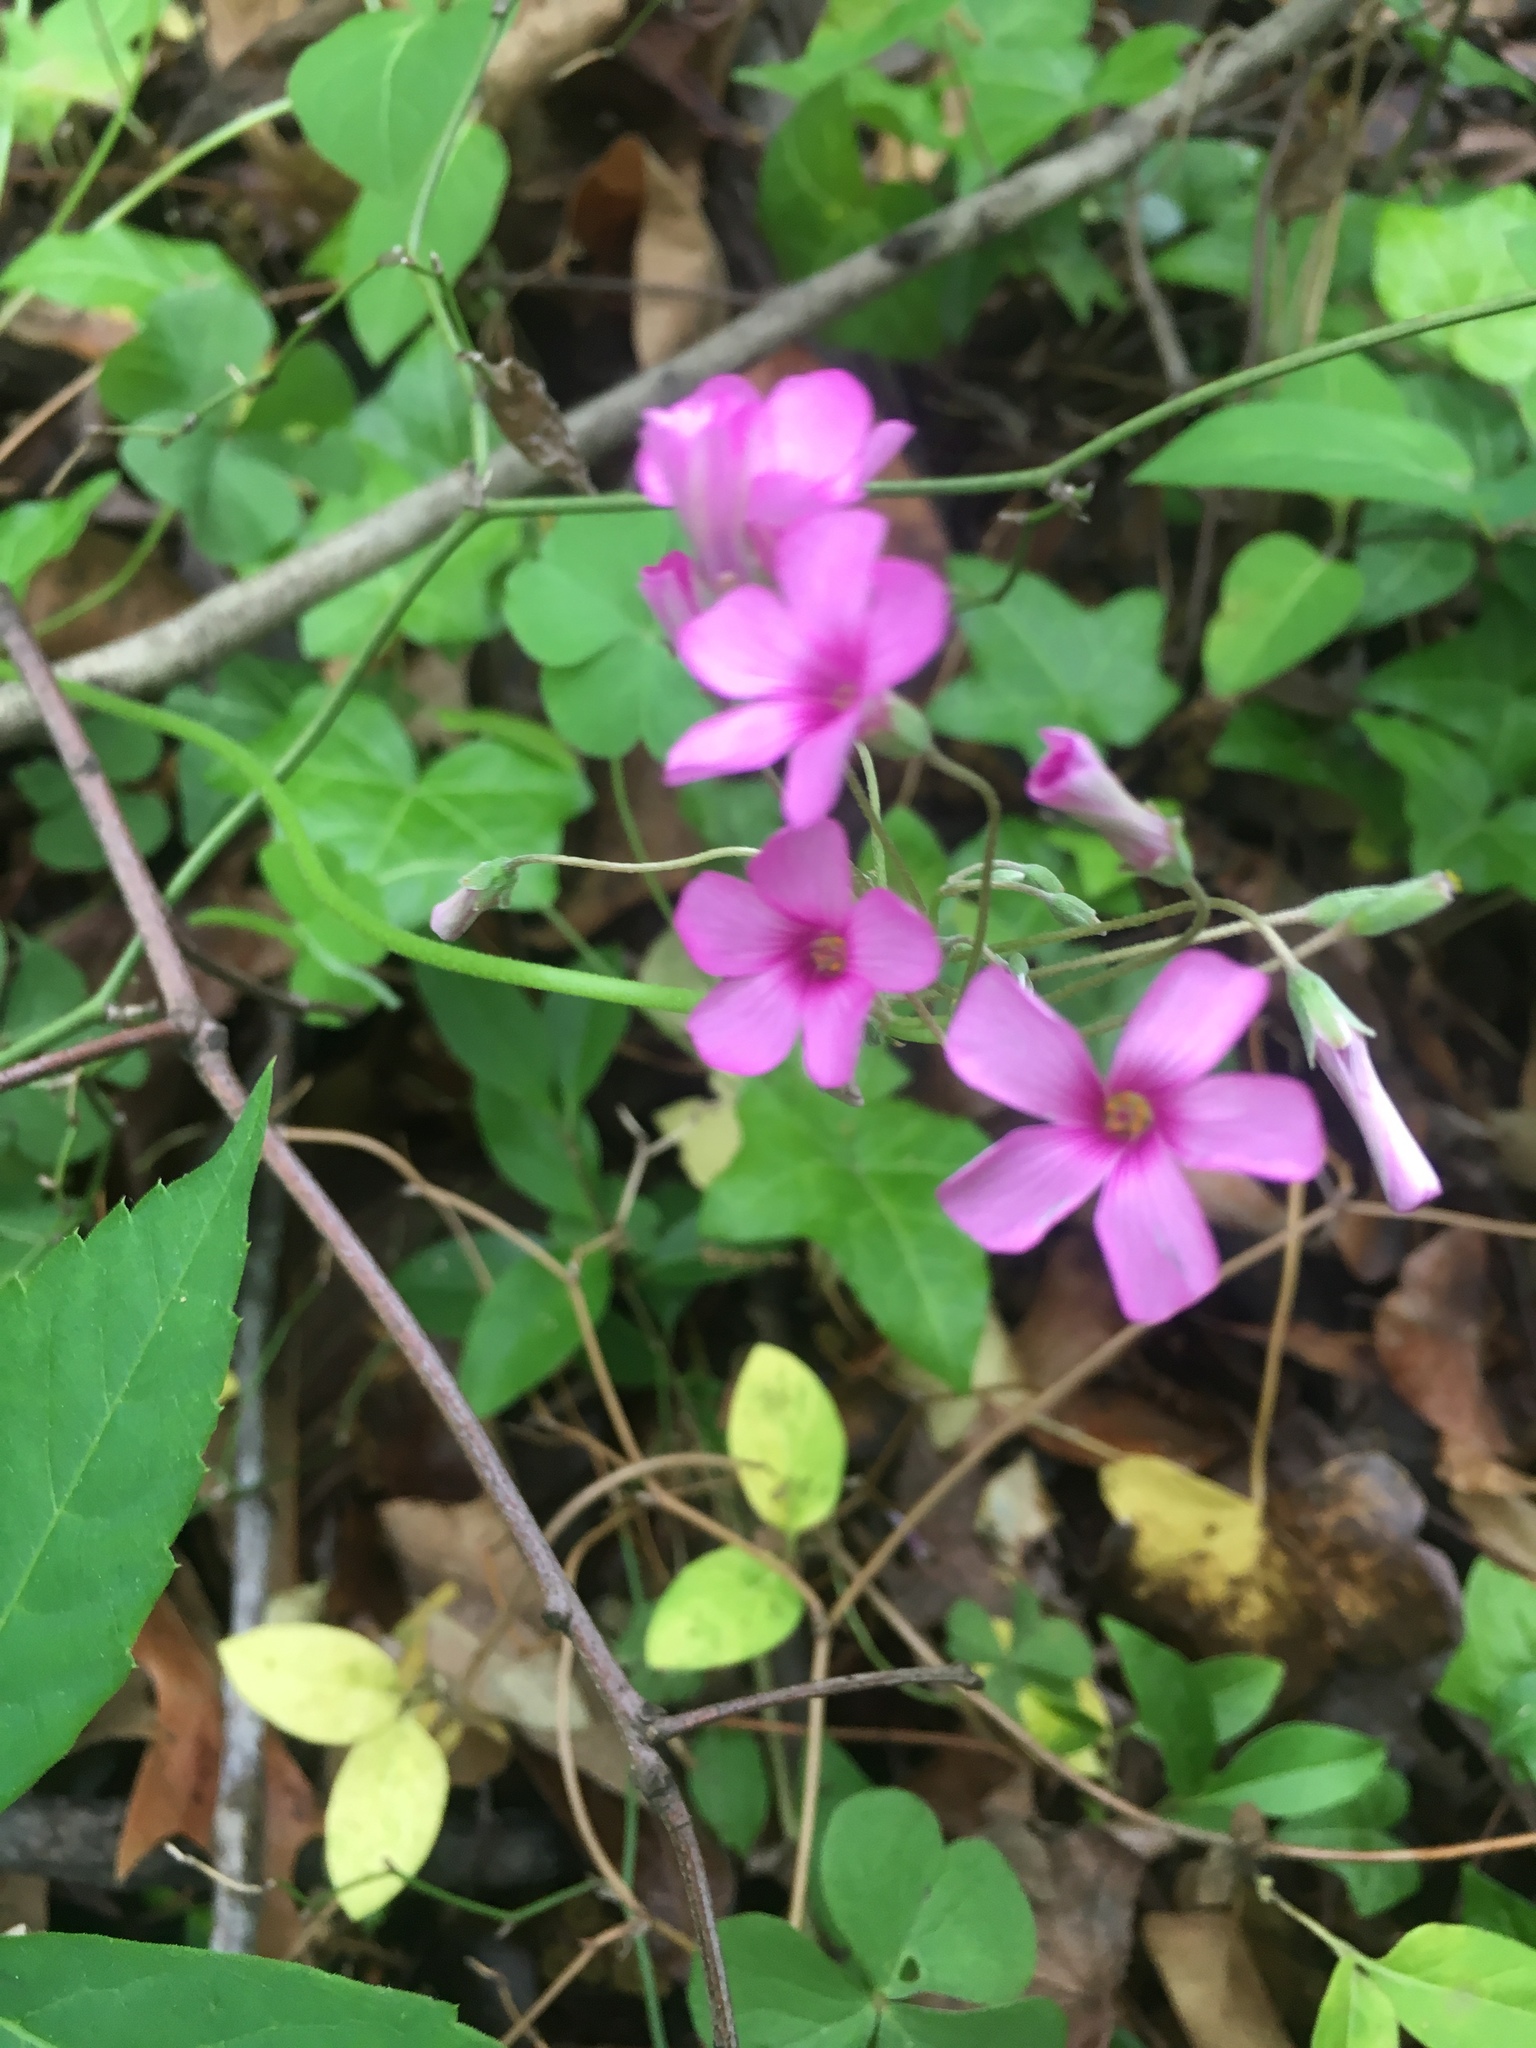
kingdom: Plantae
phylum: Tracheophyta
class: Magnoliopsida
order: Oxalidales
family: Oxalidaceae
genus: Oxalis
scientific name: Oxalis articulata
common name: Pink-sorrel
